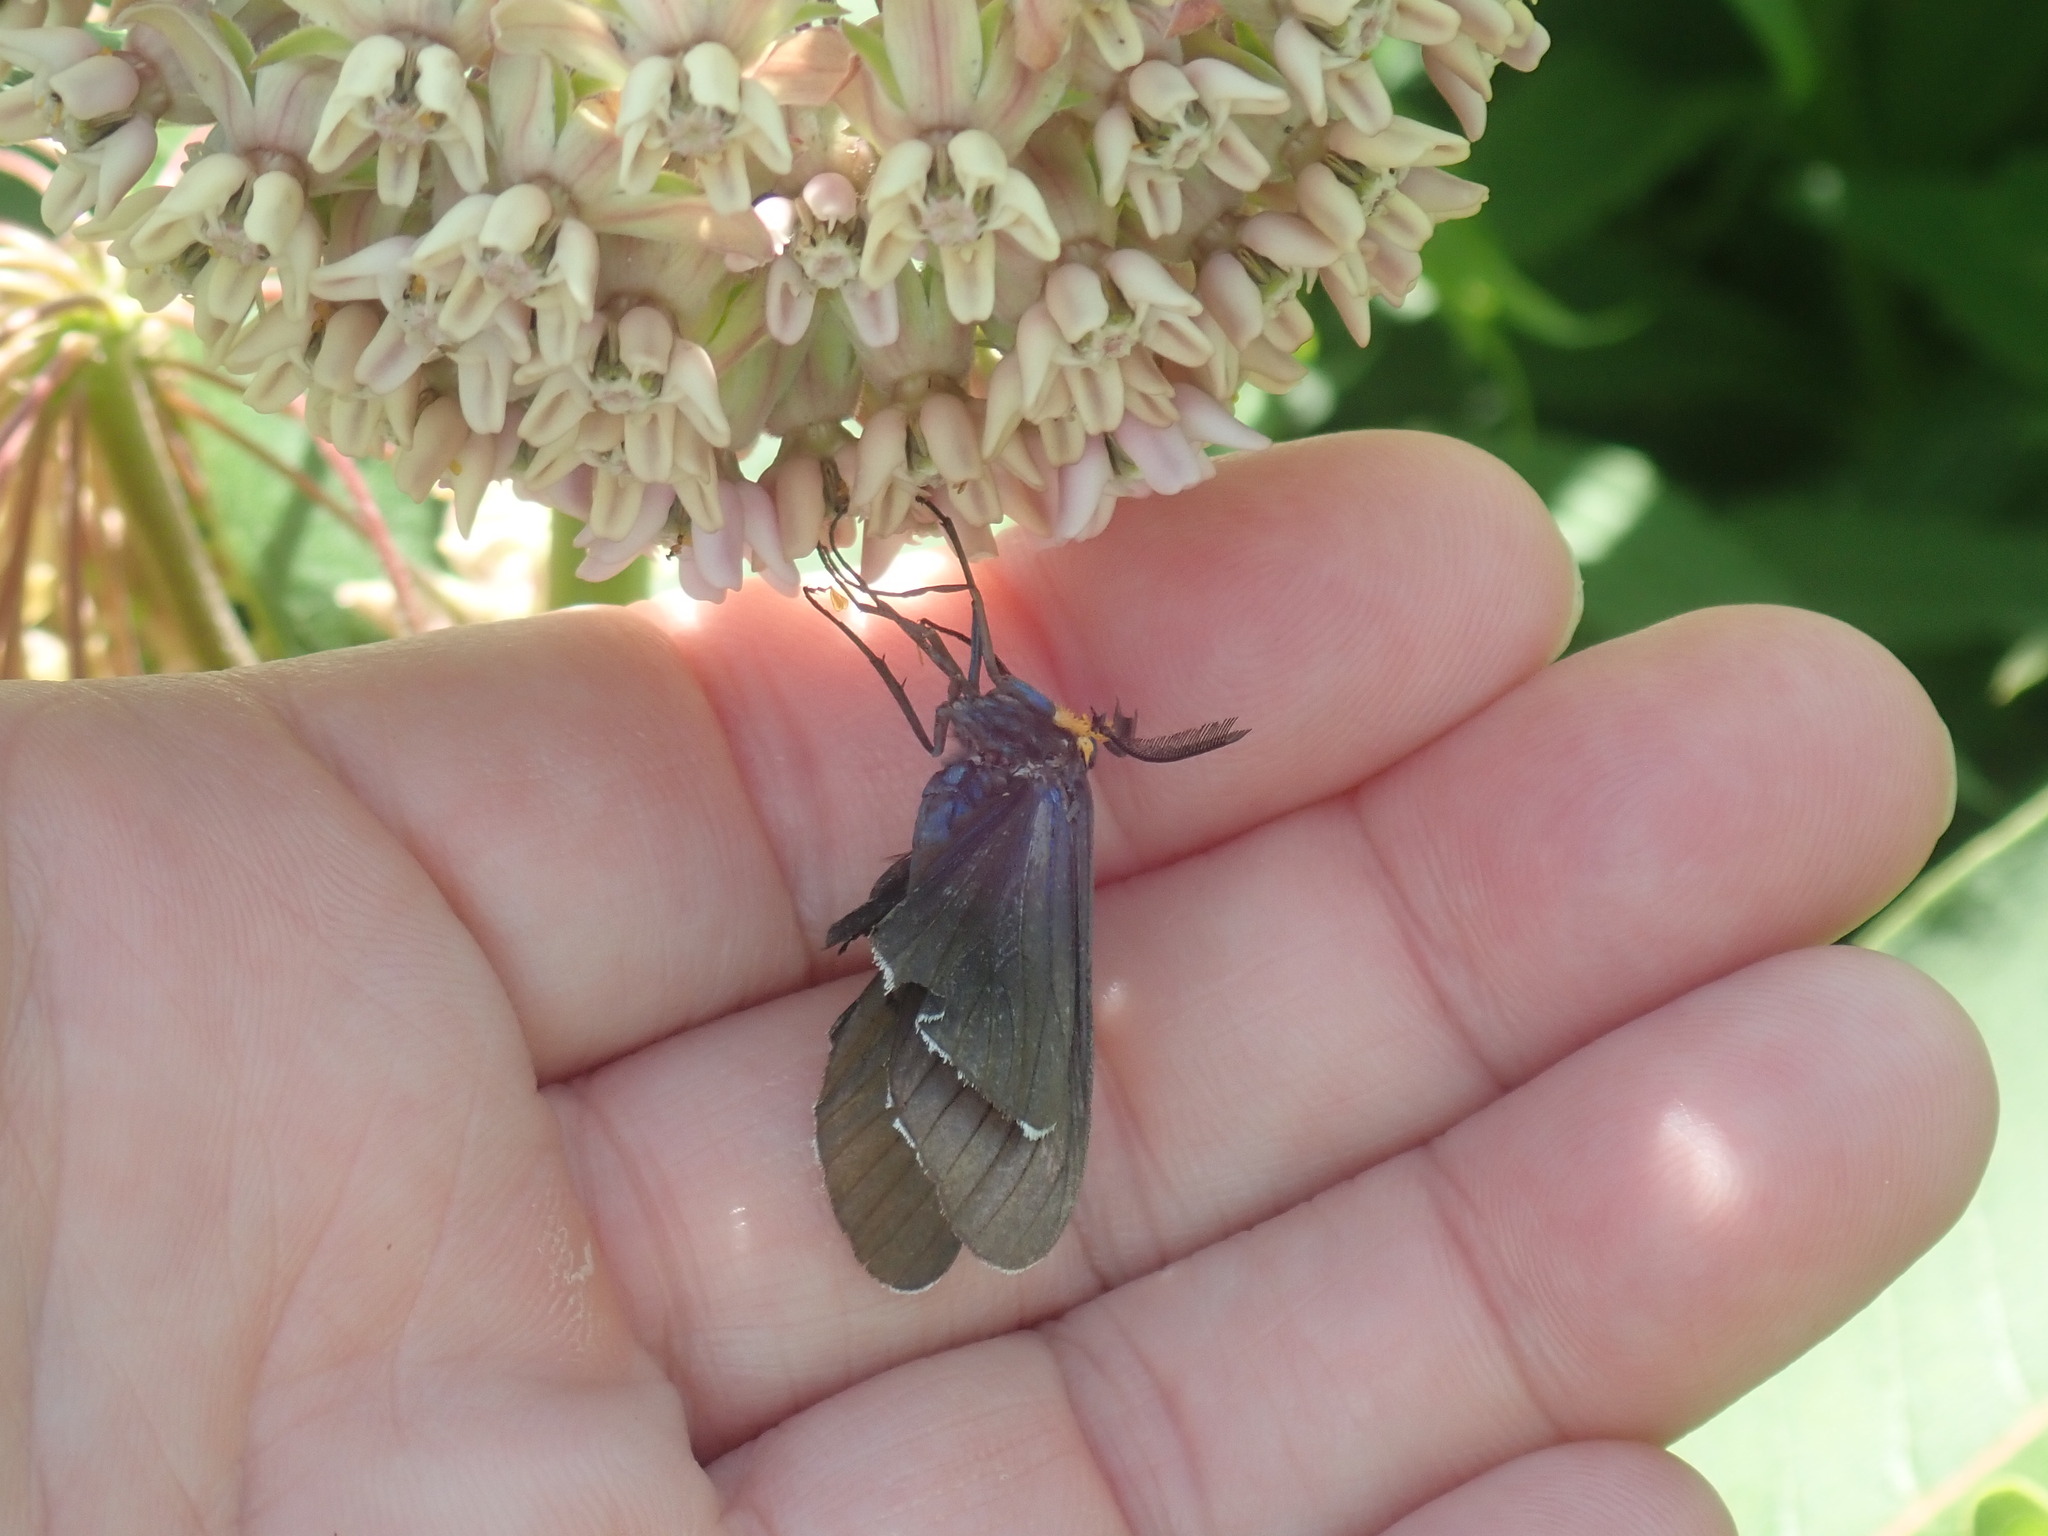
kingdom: Animalia
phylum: Arthropoda
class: Insecta
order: Lepidoptera
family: Erebidae
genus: Ctenucha
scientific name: Ctenucha virginica
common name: Virginia ctenucha moth
